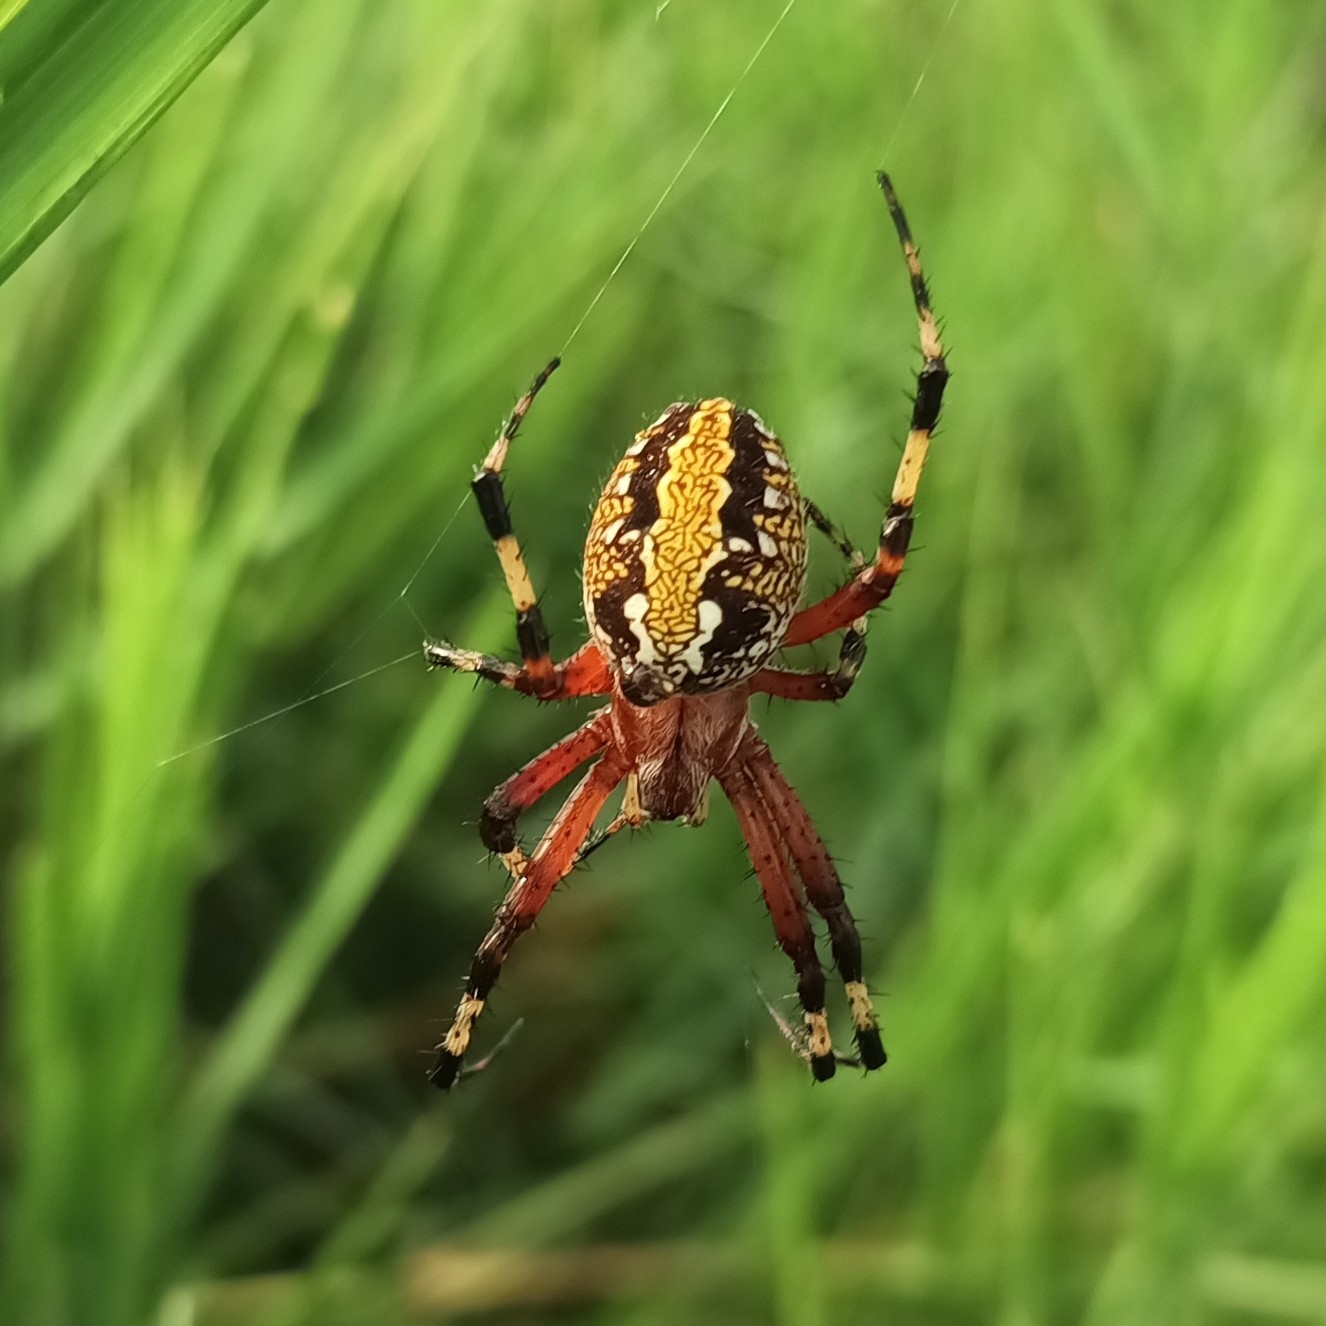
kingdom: Animalia
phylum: Arthropoda
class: Arachnida
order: Araneae
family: Araneidae
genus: Neoscona
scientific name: Neoscona oaxacensis
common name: Orb weavers
